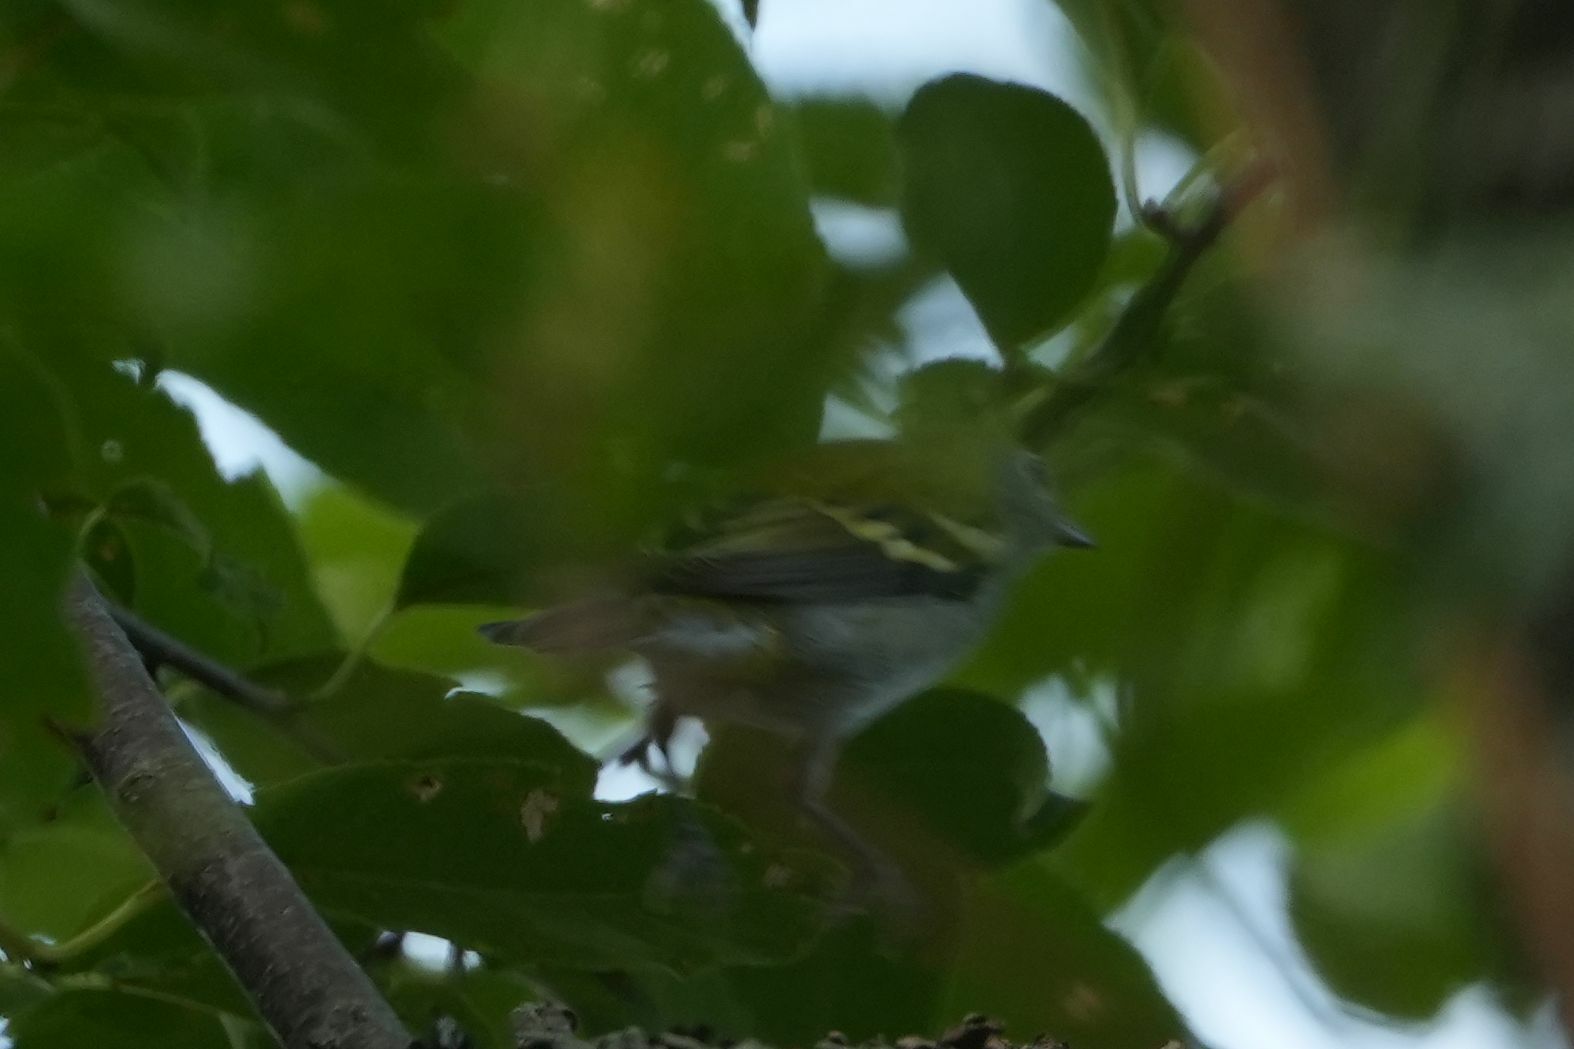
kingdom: Animalia
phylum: Chordata
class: Aves
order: Passeriformes
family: Parulidae
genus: Setophaga
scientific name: Setophaga pensylvanica
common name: Chestnut-sided warbler
